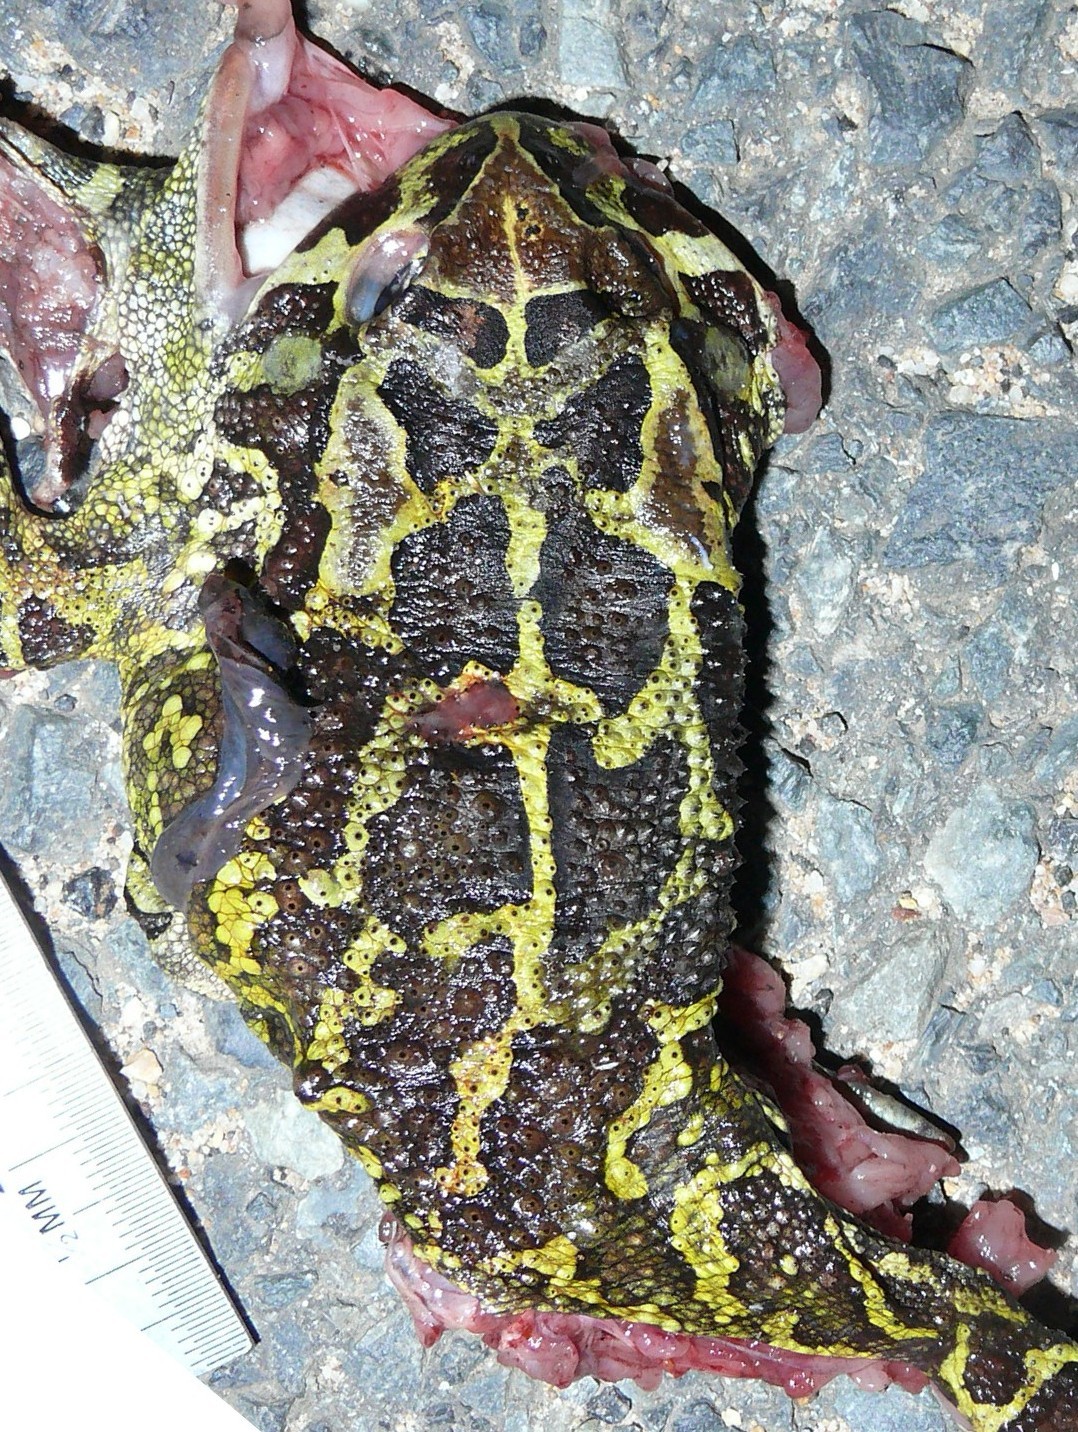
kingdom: Animalia
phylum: Chordata
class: Amphibia
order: Anura
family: Bufonidae
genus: Sclerophrys
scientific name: Sclerophrys pantherina
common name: Panther toad
